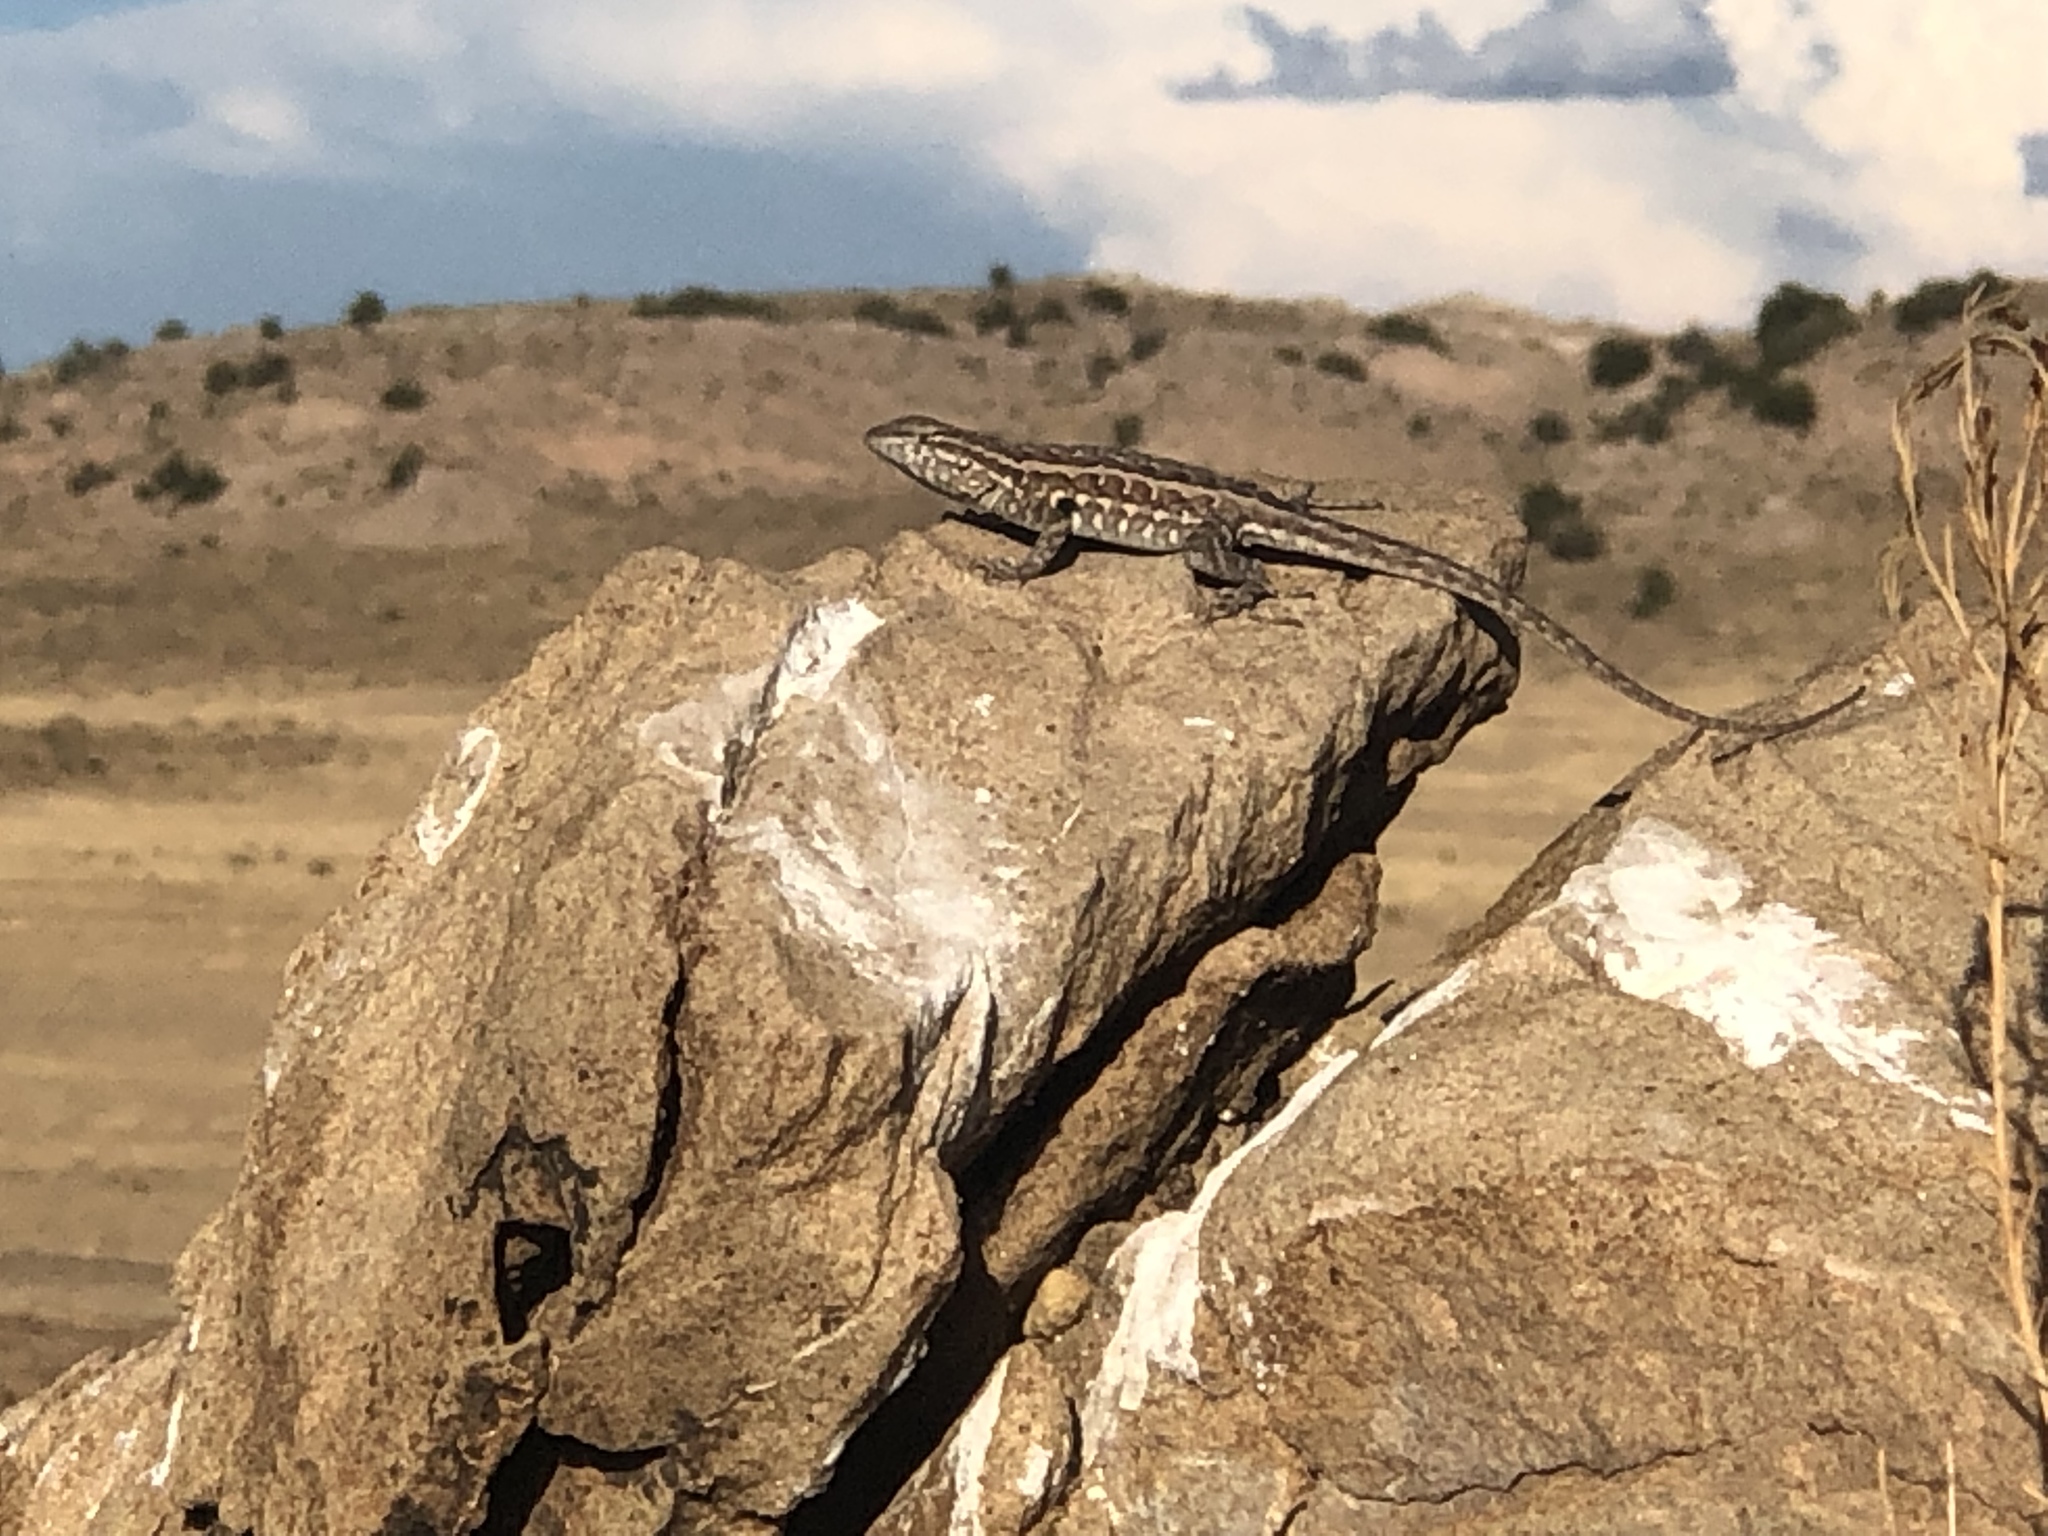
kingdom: Animalia
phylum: Chordata
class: Squamata
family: Phrynosomatidae
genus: Uta
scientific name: Uta stansburiana
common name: Side-blotched lizard
